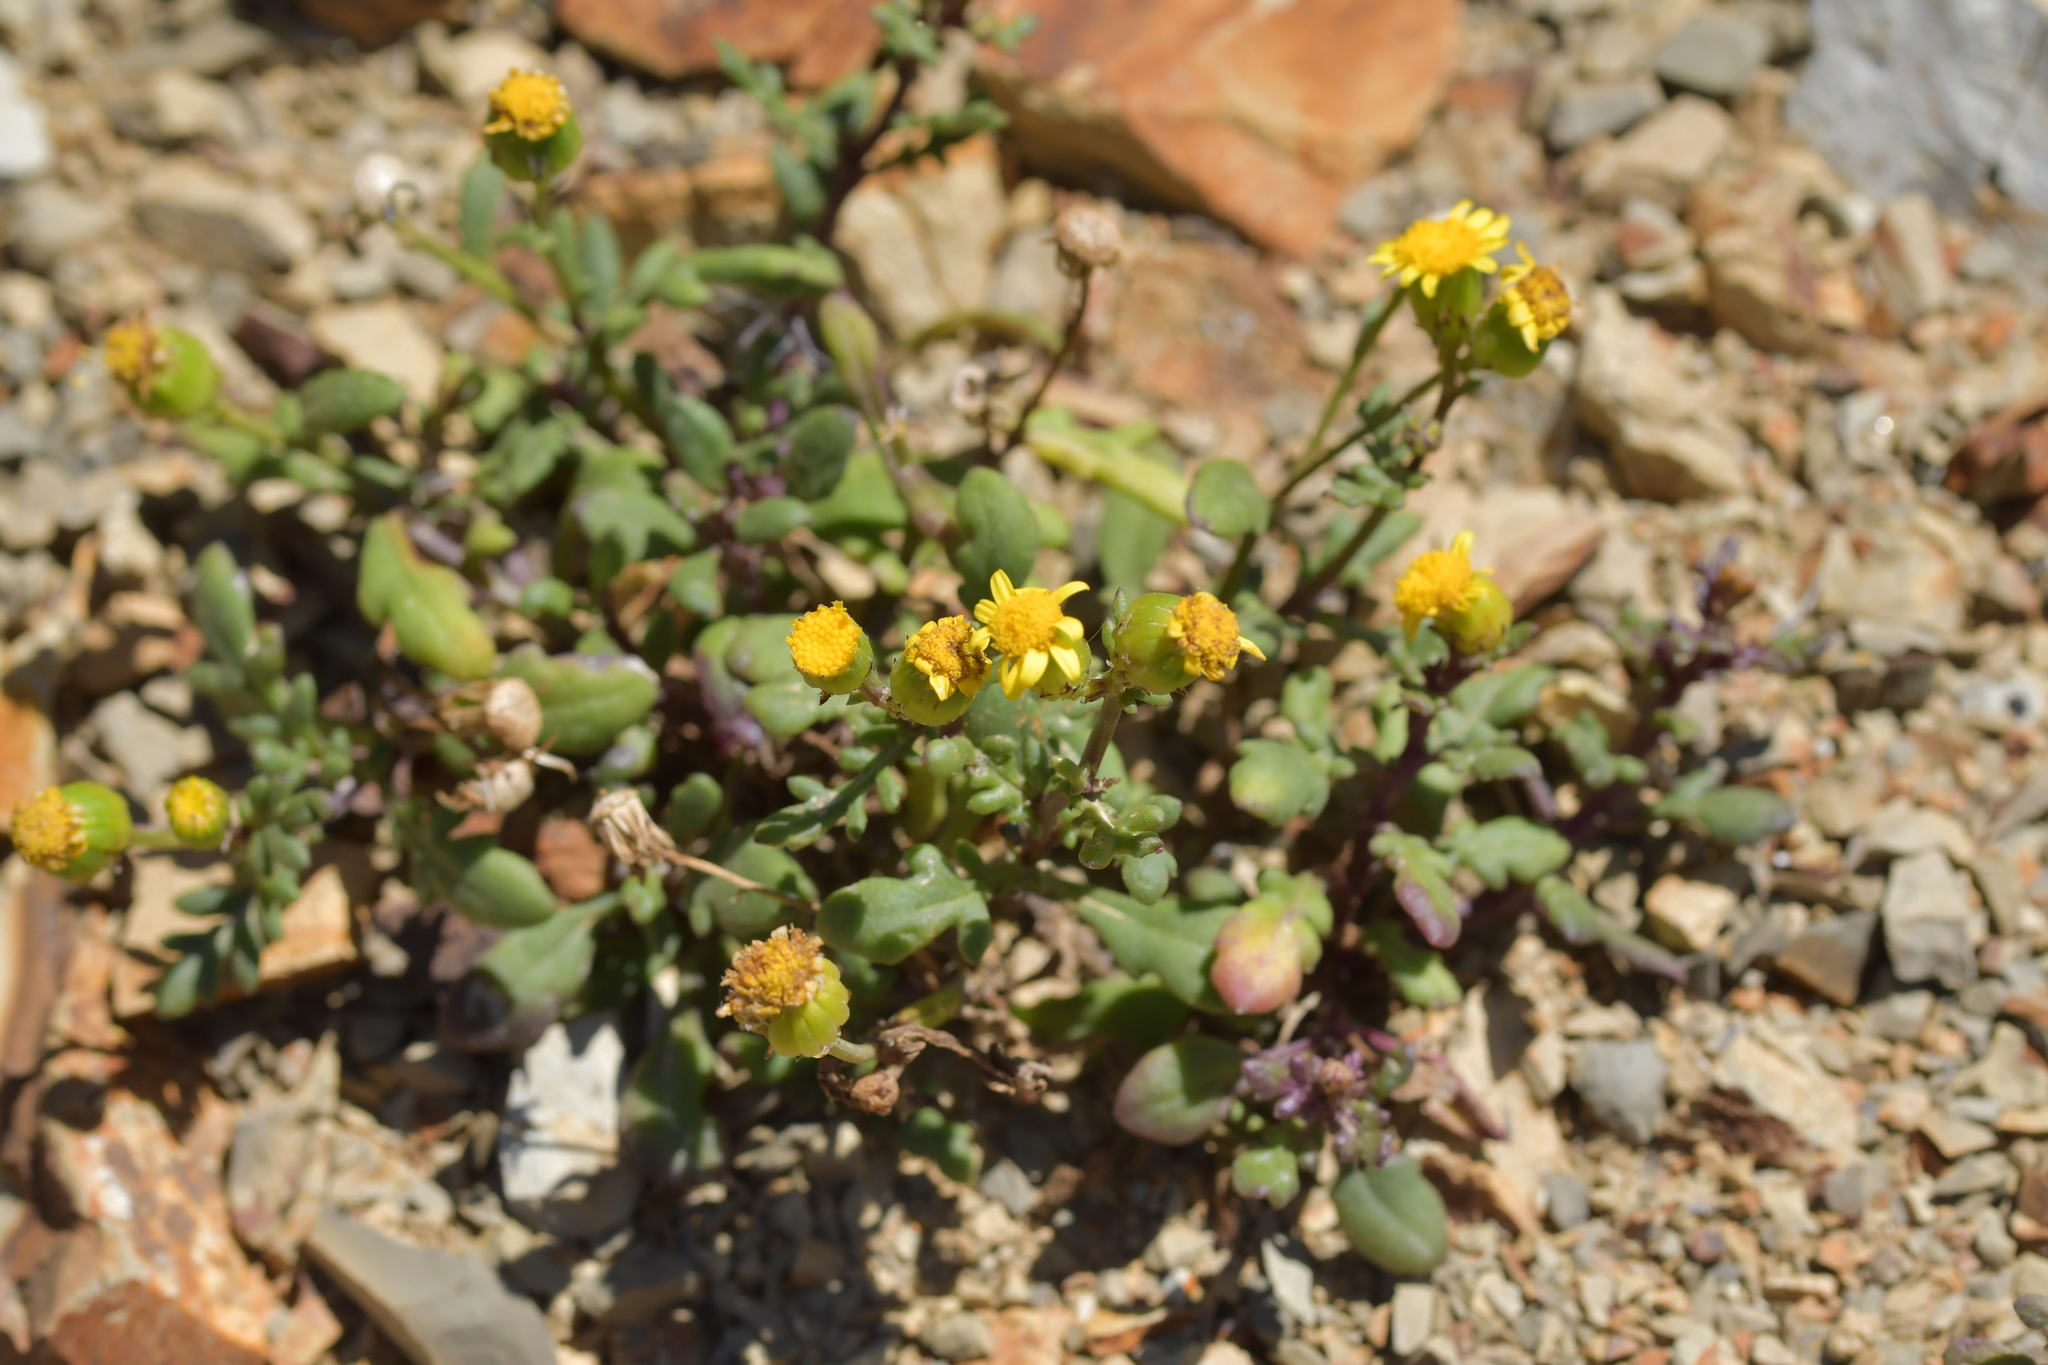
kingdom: Plantae
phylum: Tracheophyta
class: Magnoliopsida
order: Asterales
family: Asteraceae
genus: Senecio
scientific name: Senecio lautus
